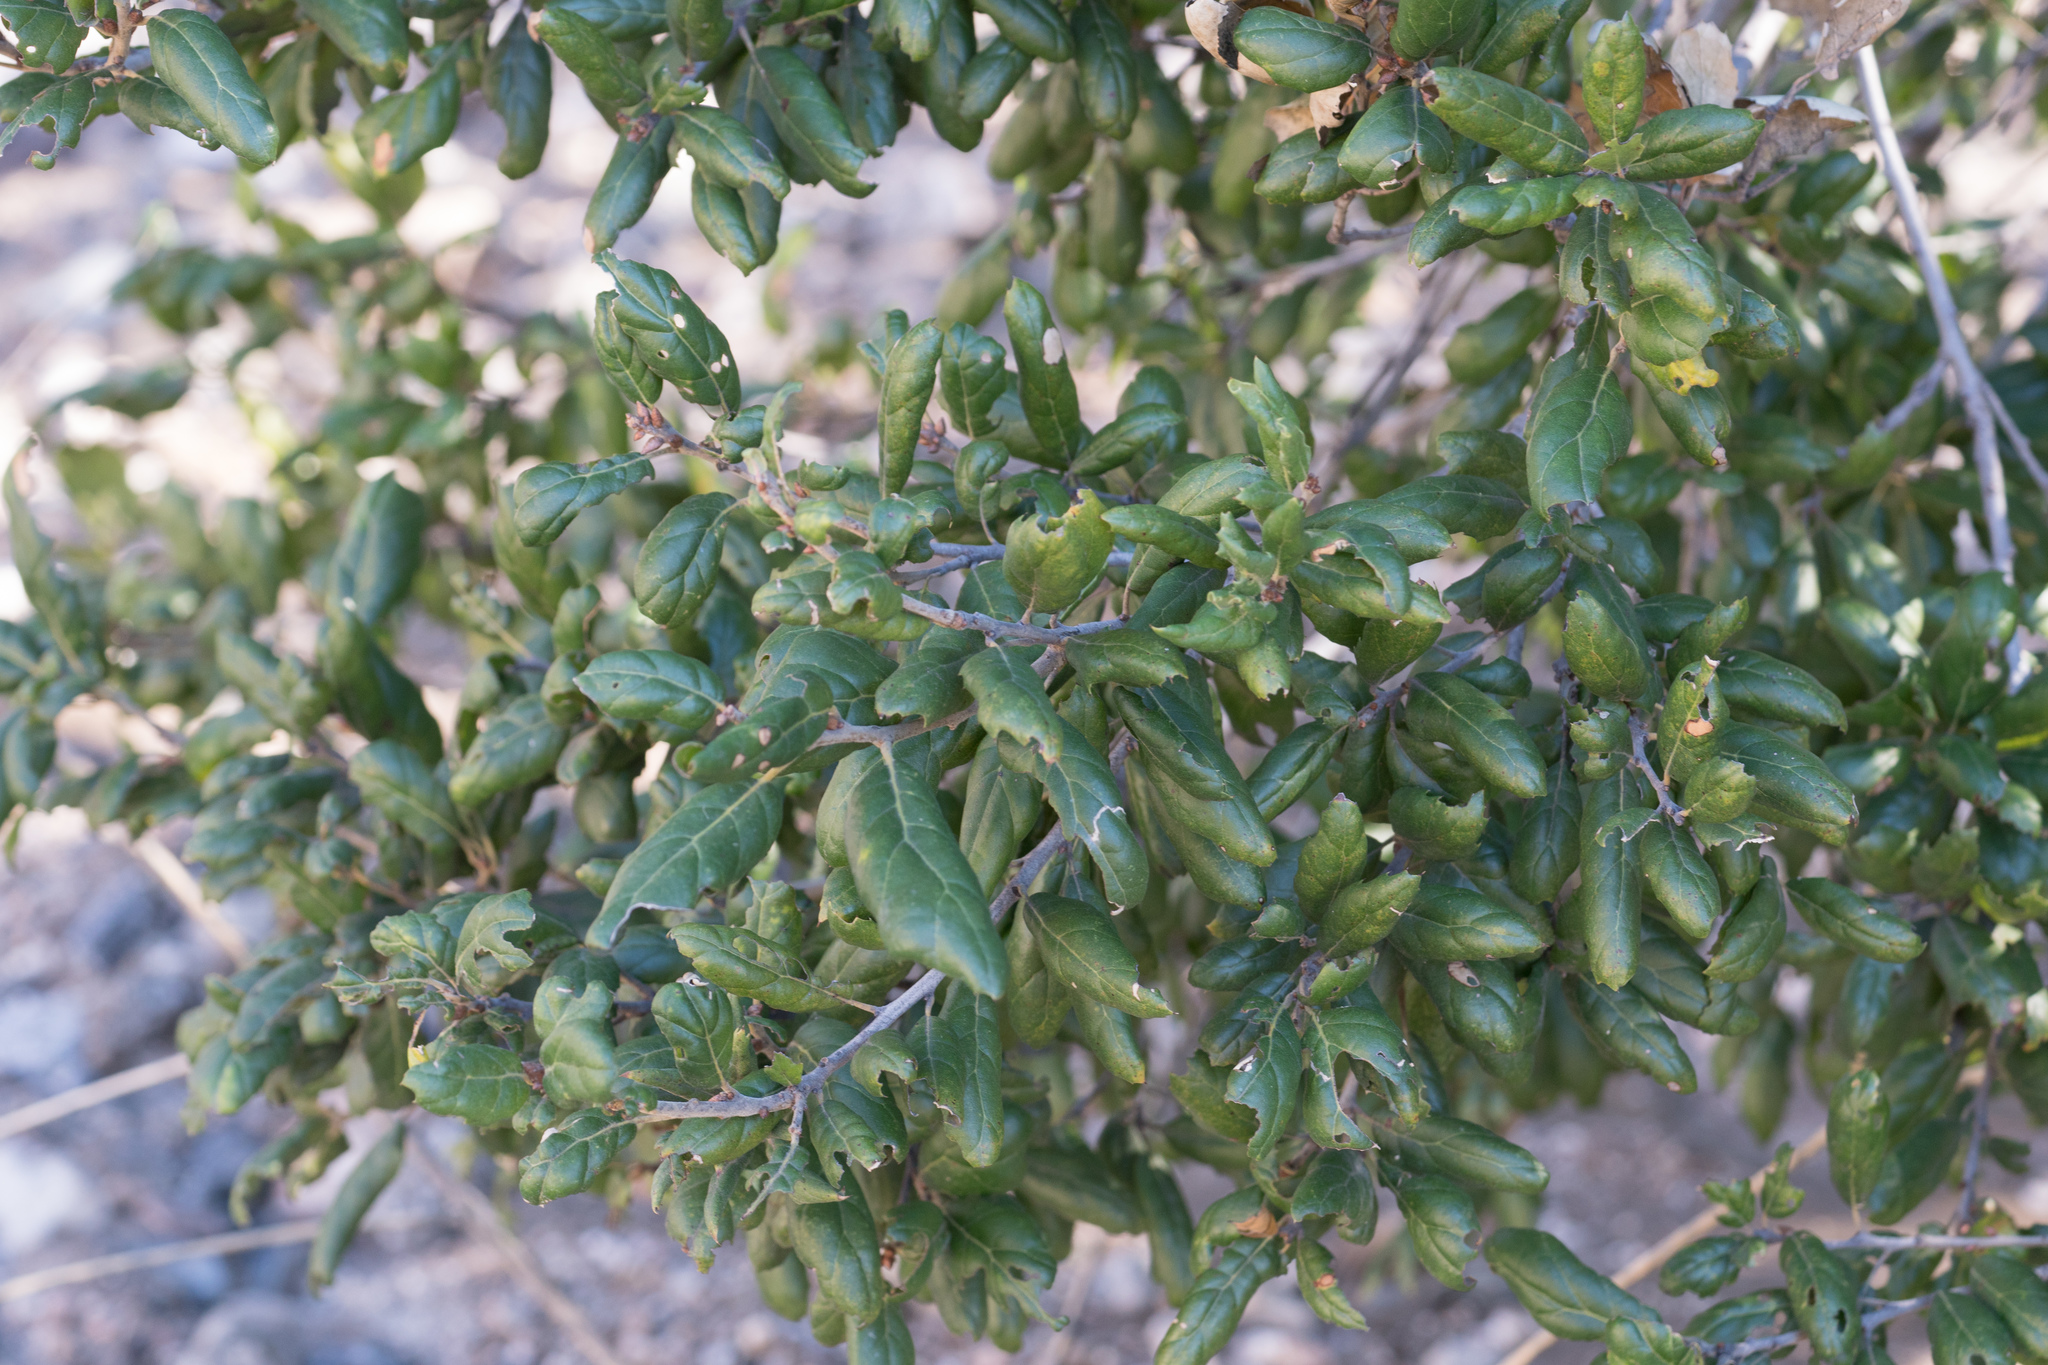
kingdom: Plantae
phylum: Tracheophyta
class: Magnoliopsida
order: Fagales
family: Fagaceae
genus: Quercus
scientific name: Quercus agrifolia
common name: California live oak
